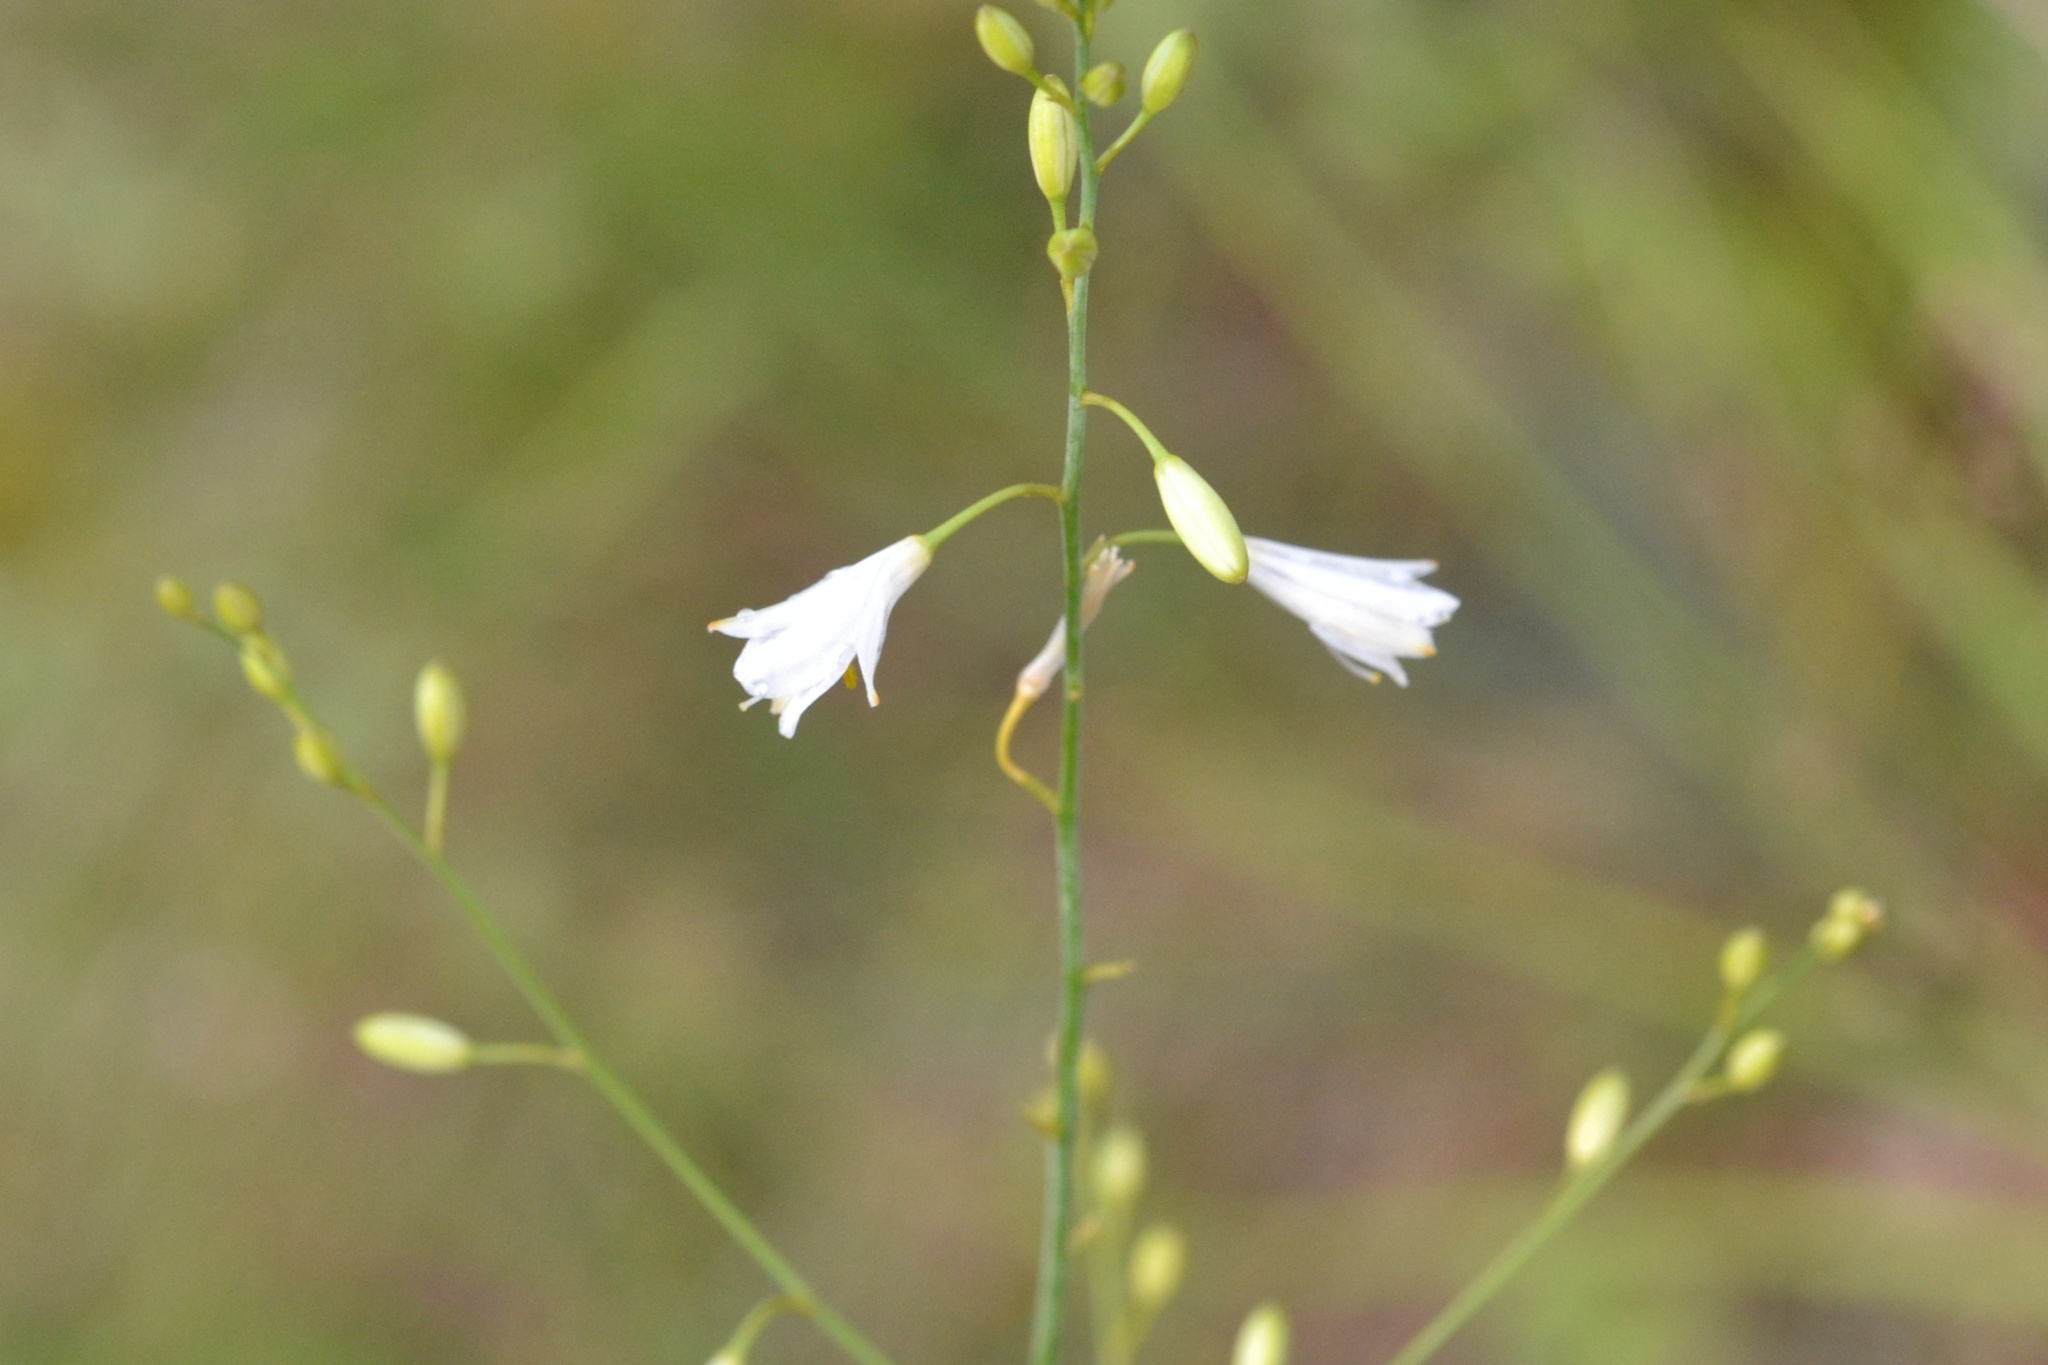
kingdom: Plantae
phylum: Tracheophyta
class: Liliopsida
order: Asparagales
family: Asparagaceae
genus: Anthericum
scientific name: Anthericum ramosum
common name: Branched st. bernard's-lily
